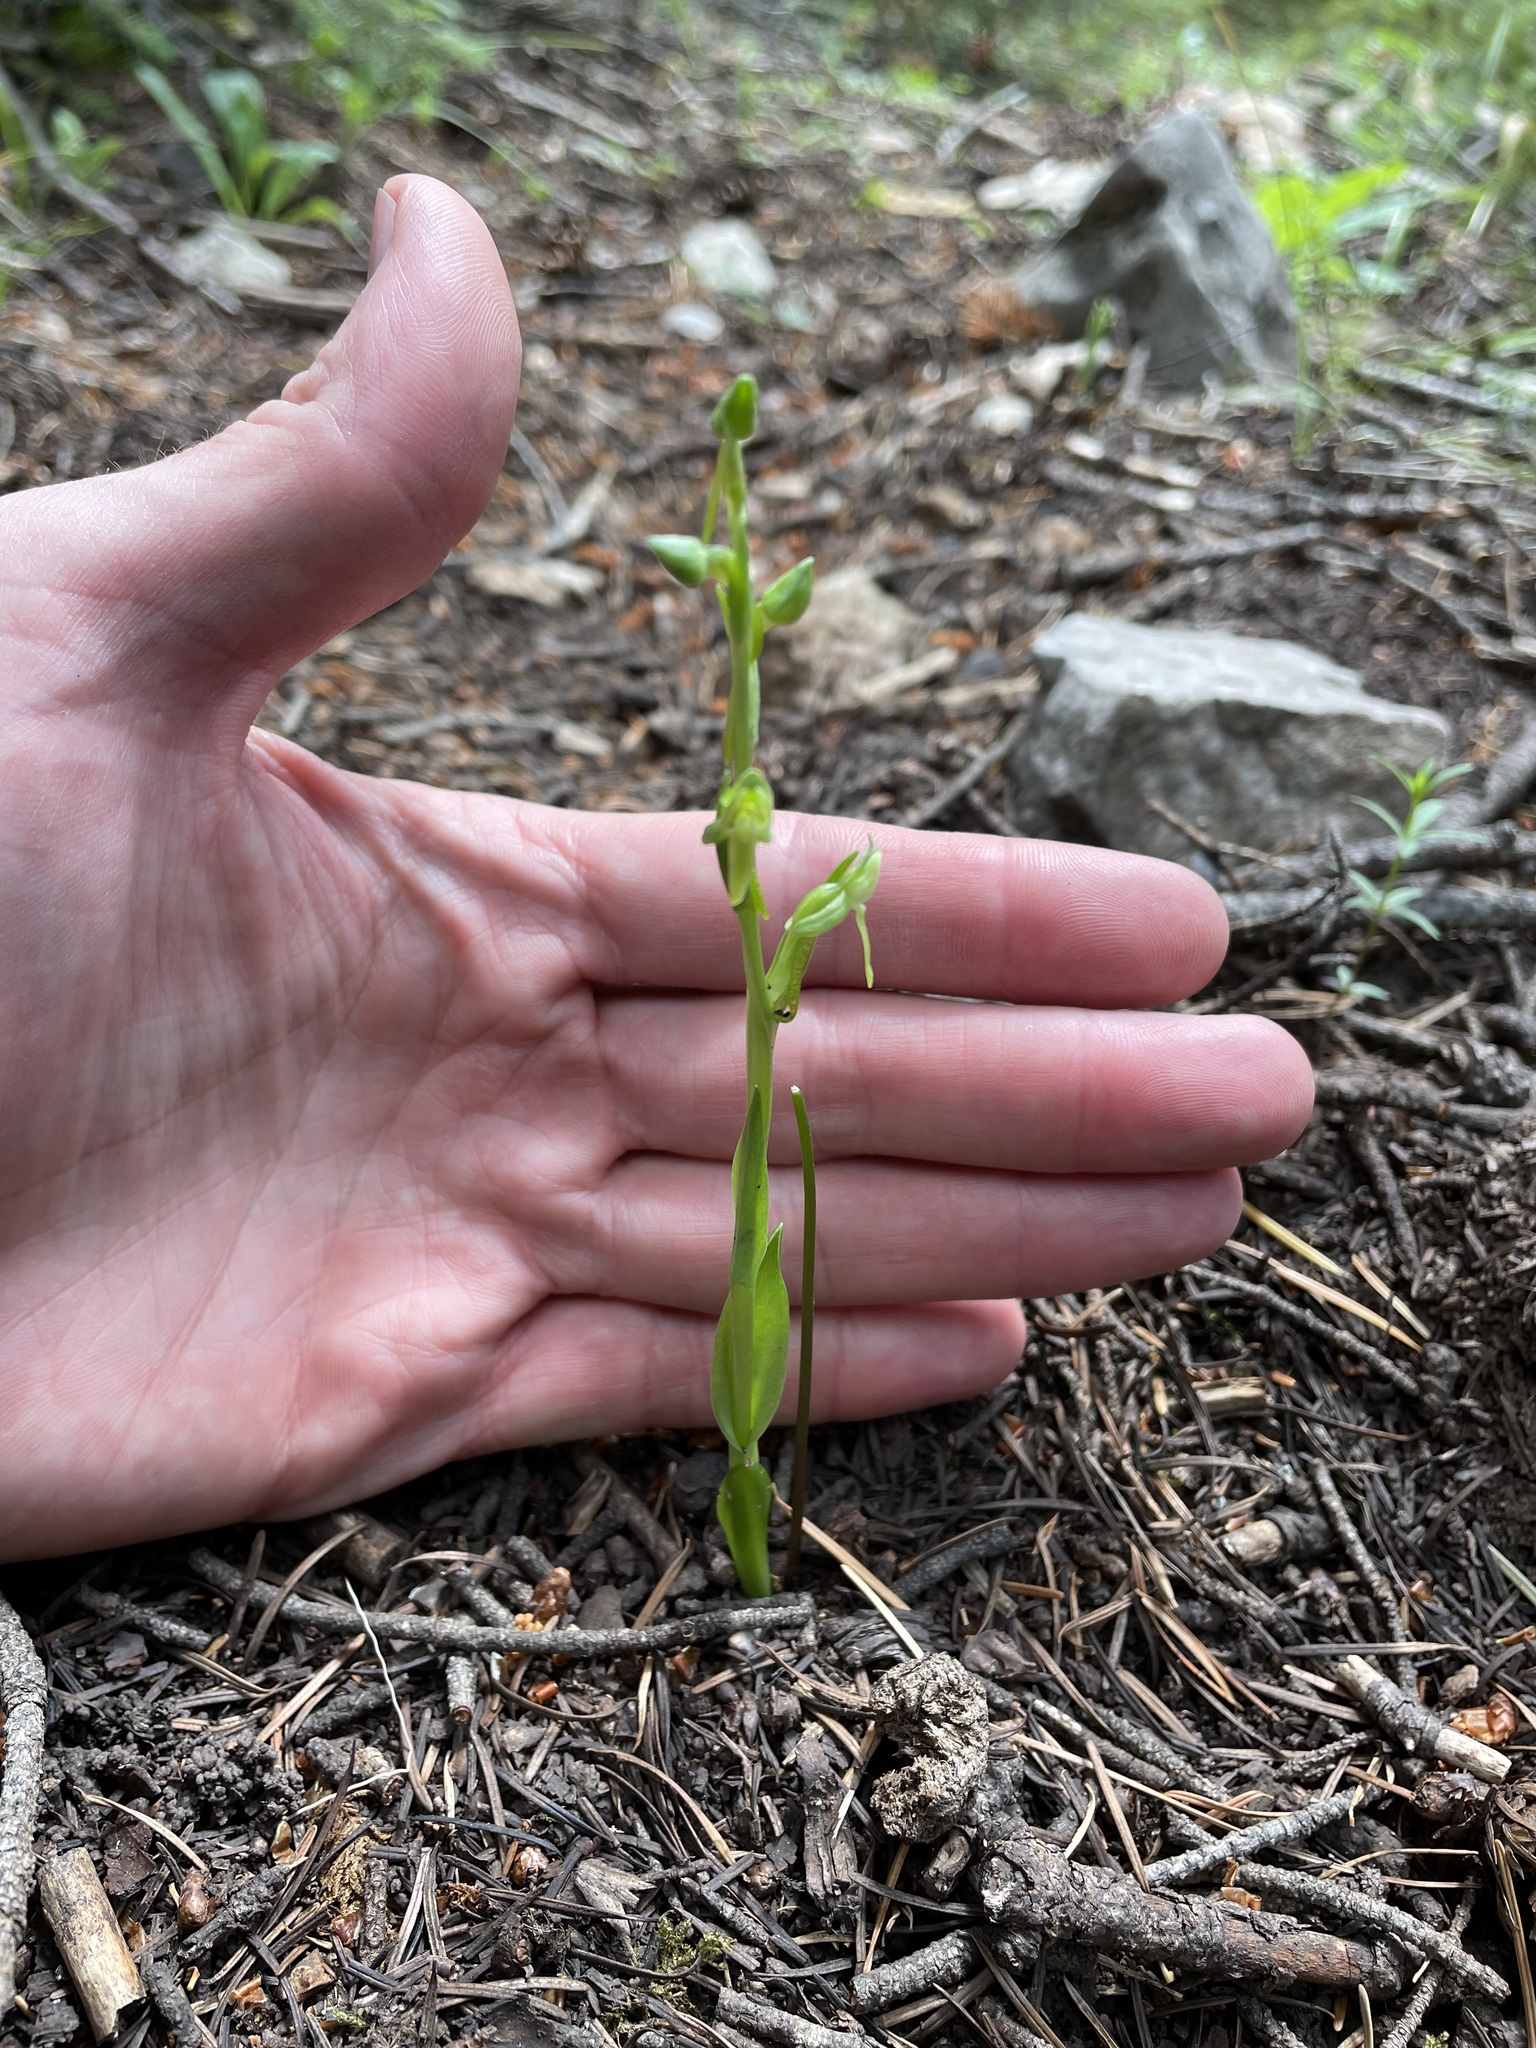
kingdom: Plantae
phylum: Tracheophyta
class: Liliopsida
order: Asparagales
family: Orchidaceae
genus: Platanthera
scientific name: Platanthera brevifolia
